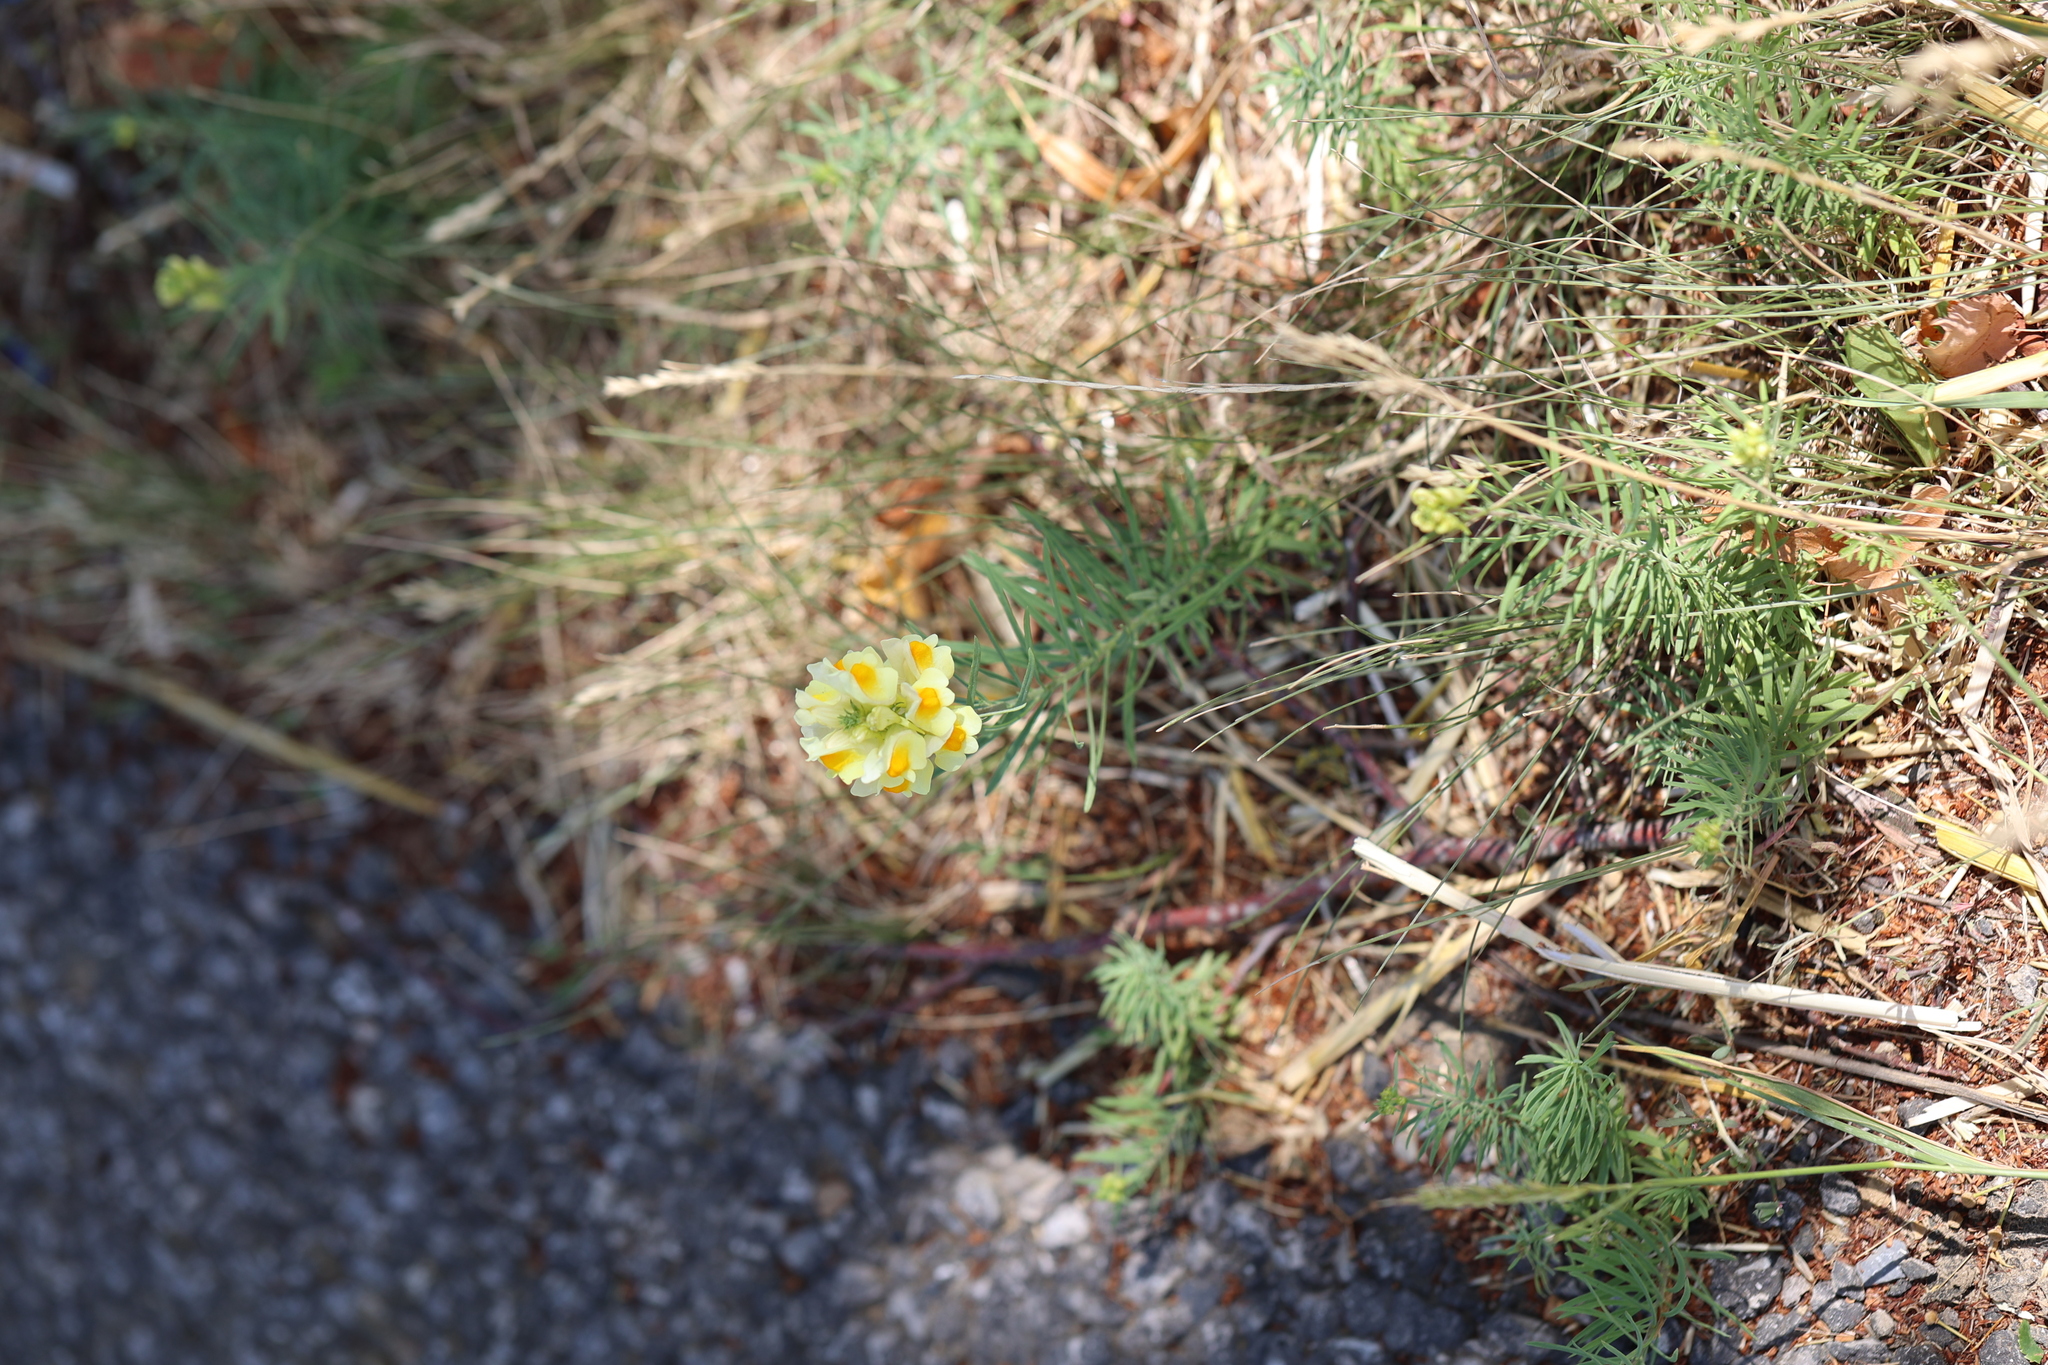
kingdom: Plantae
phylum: Tracheophyta
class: Magnoliopsida
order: Lamiales
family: Plantaginaceae
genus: Linaria
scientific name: Linaria vulgaris
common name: Butter and eggs
